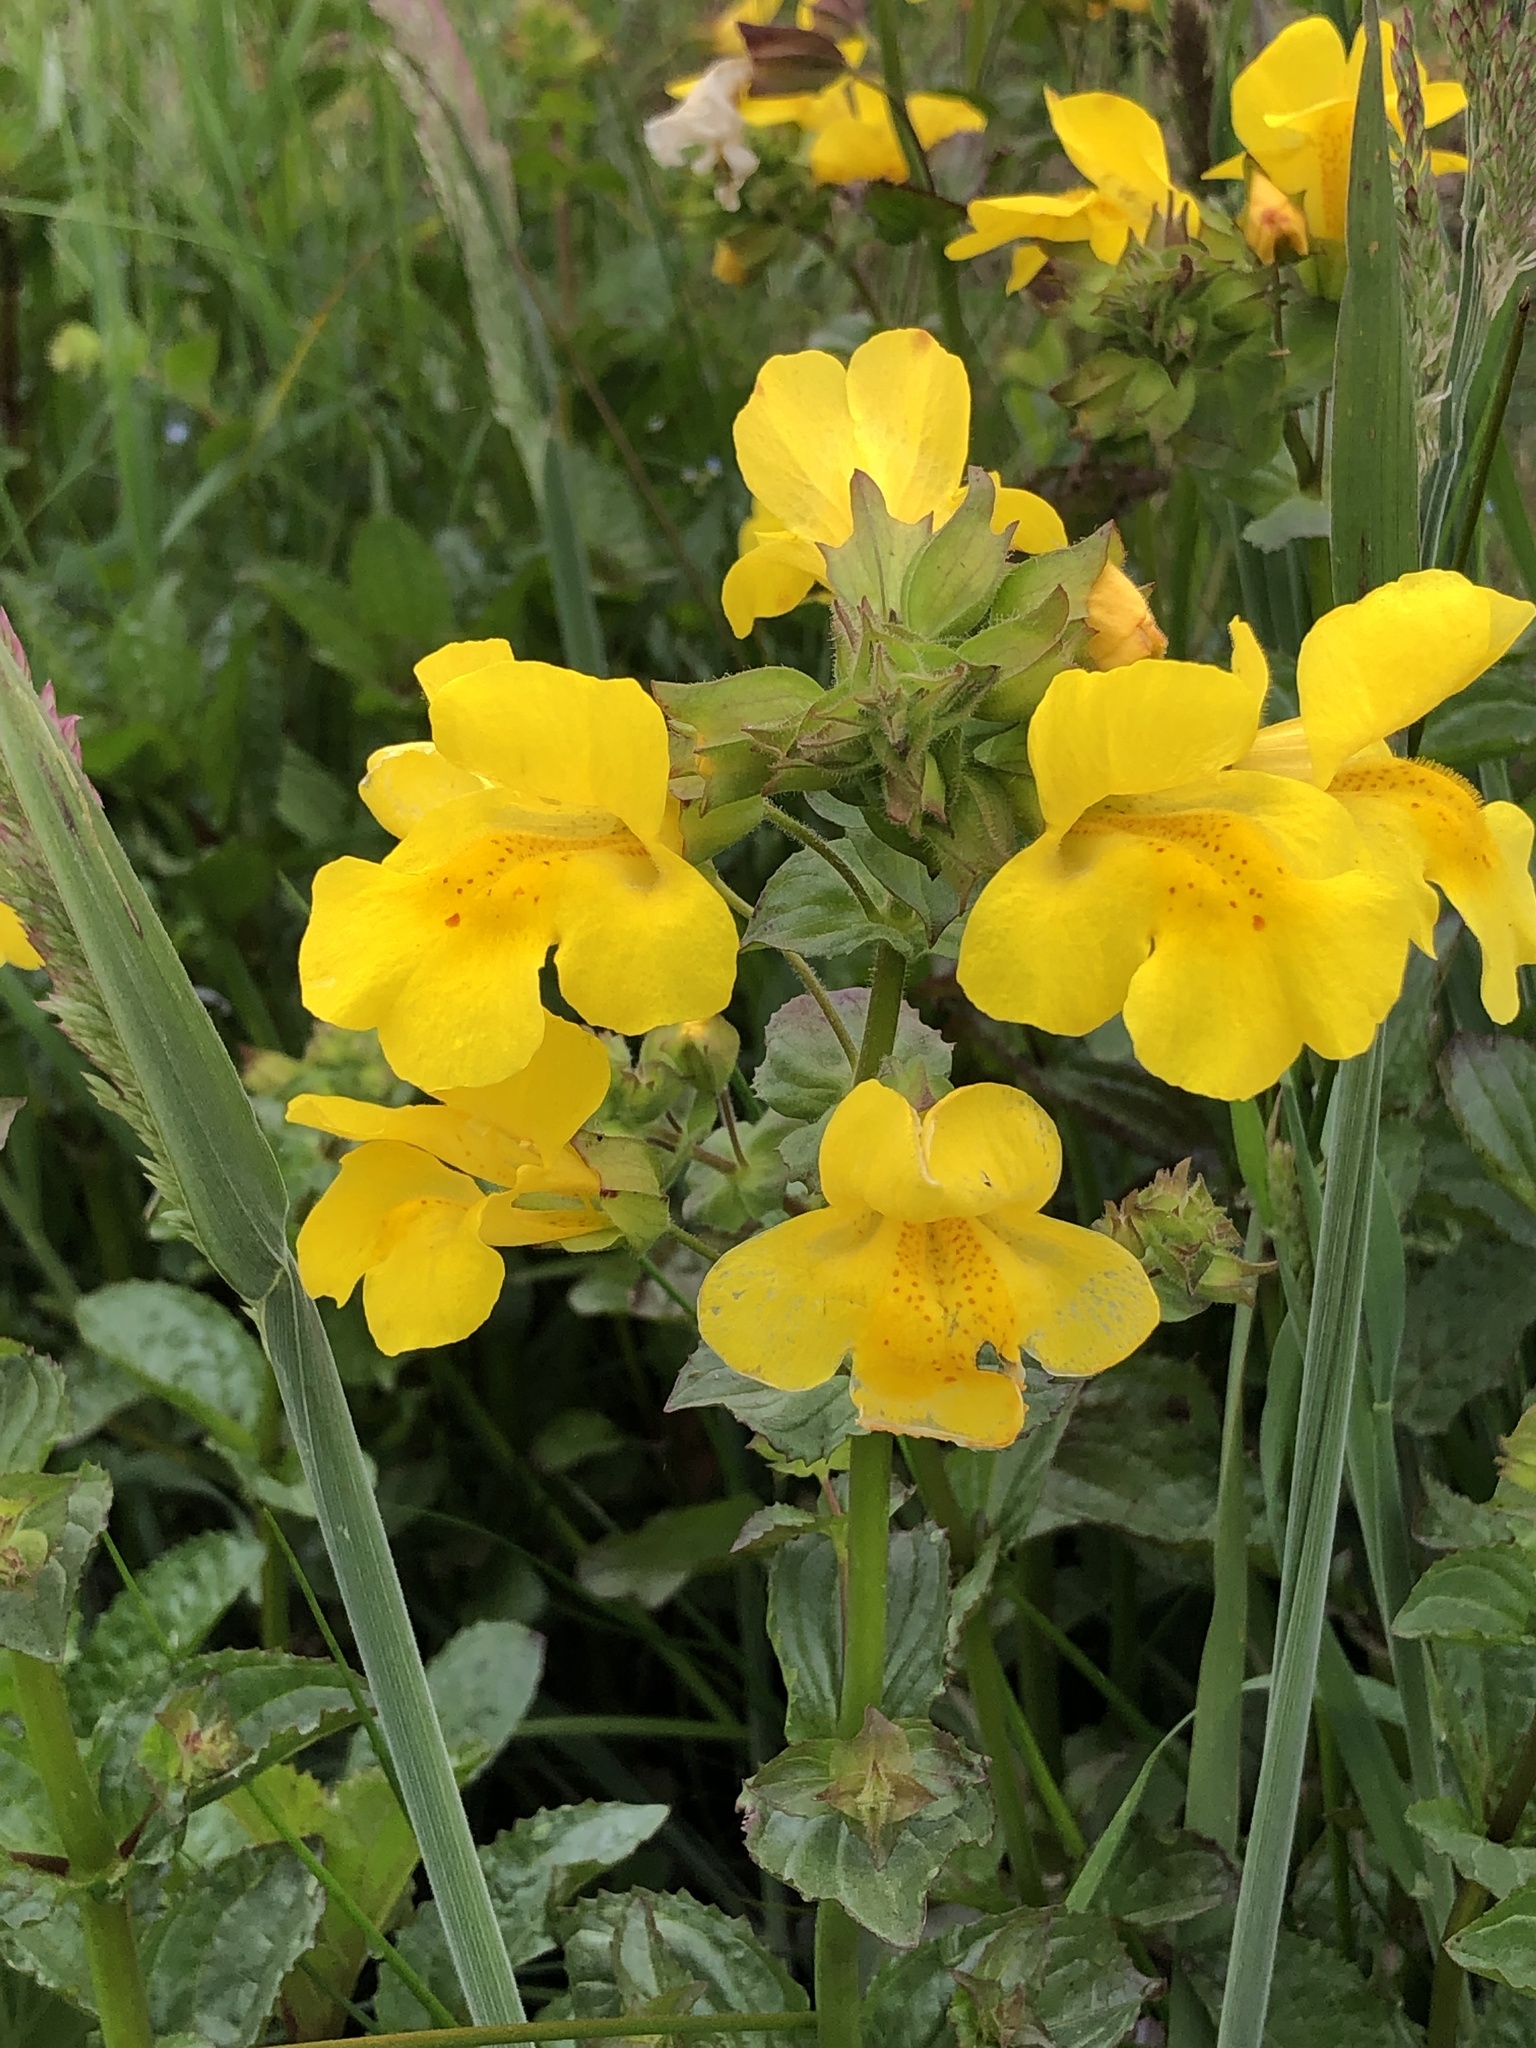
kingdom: Plantae
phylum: Tracheophyta
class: Magnoliopsida
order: Lamiales
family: Phrymaceae
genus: Erythranthe
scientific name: Erythranthe guttata
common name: Monkeyflower
